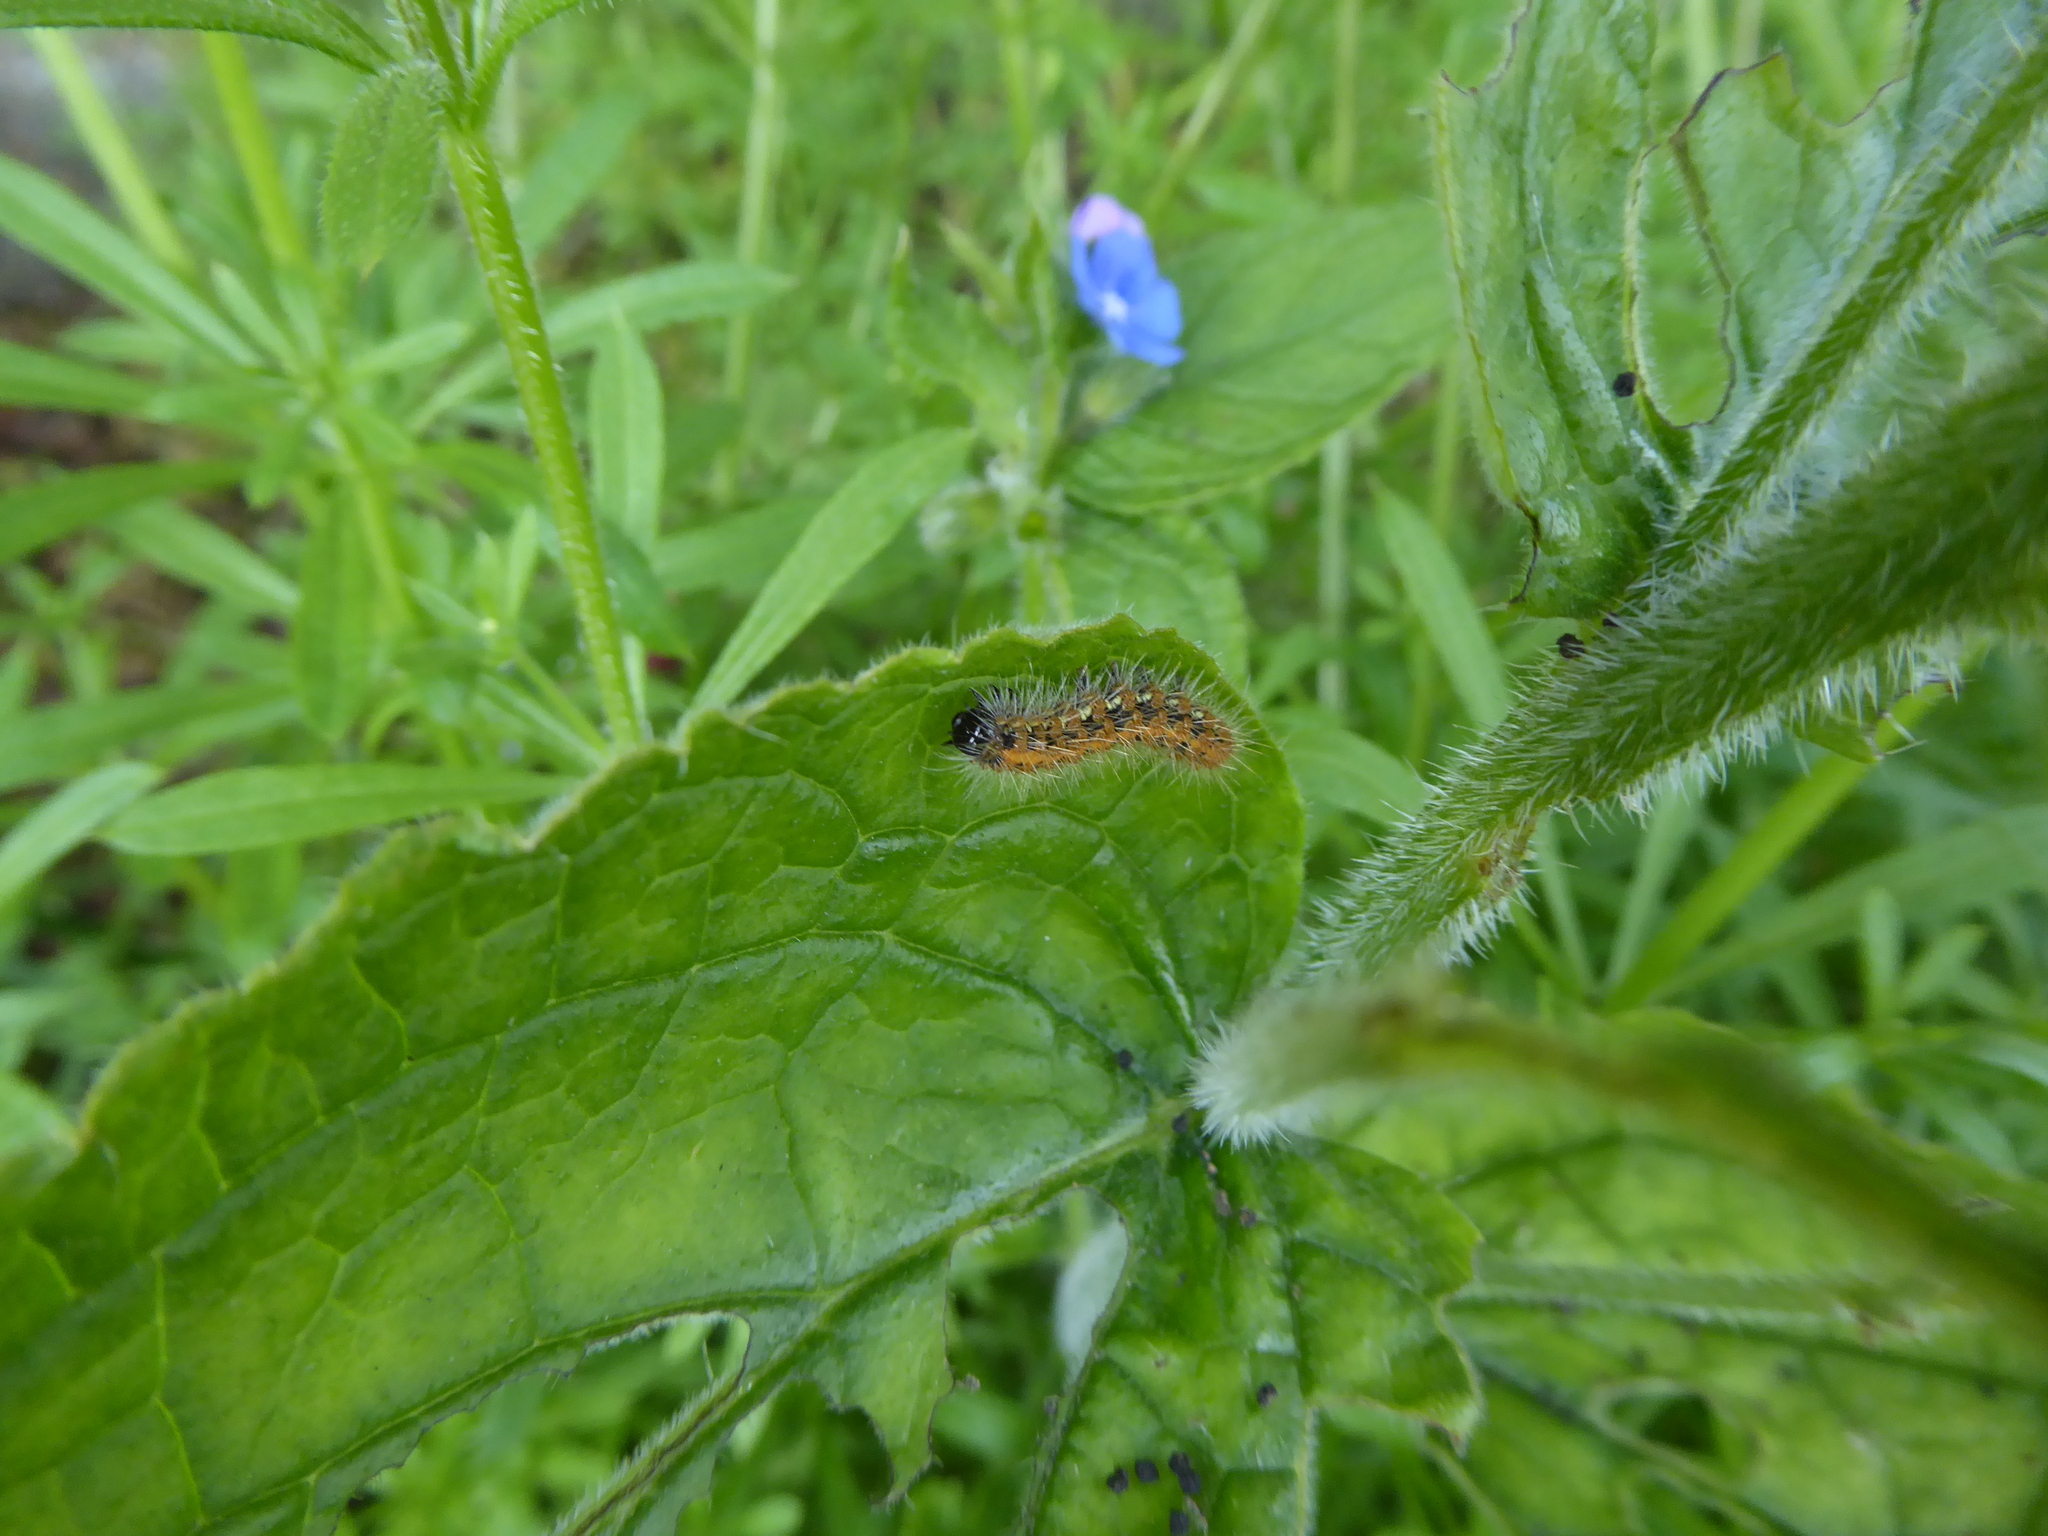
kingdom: Animalia
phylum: Arthropoda
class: Insecta
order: Lepidoptera
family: Erebidae
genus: Euplagia
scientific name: Euplagia quadripunctaria
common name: Jersey tiger
